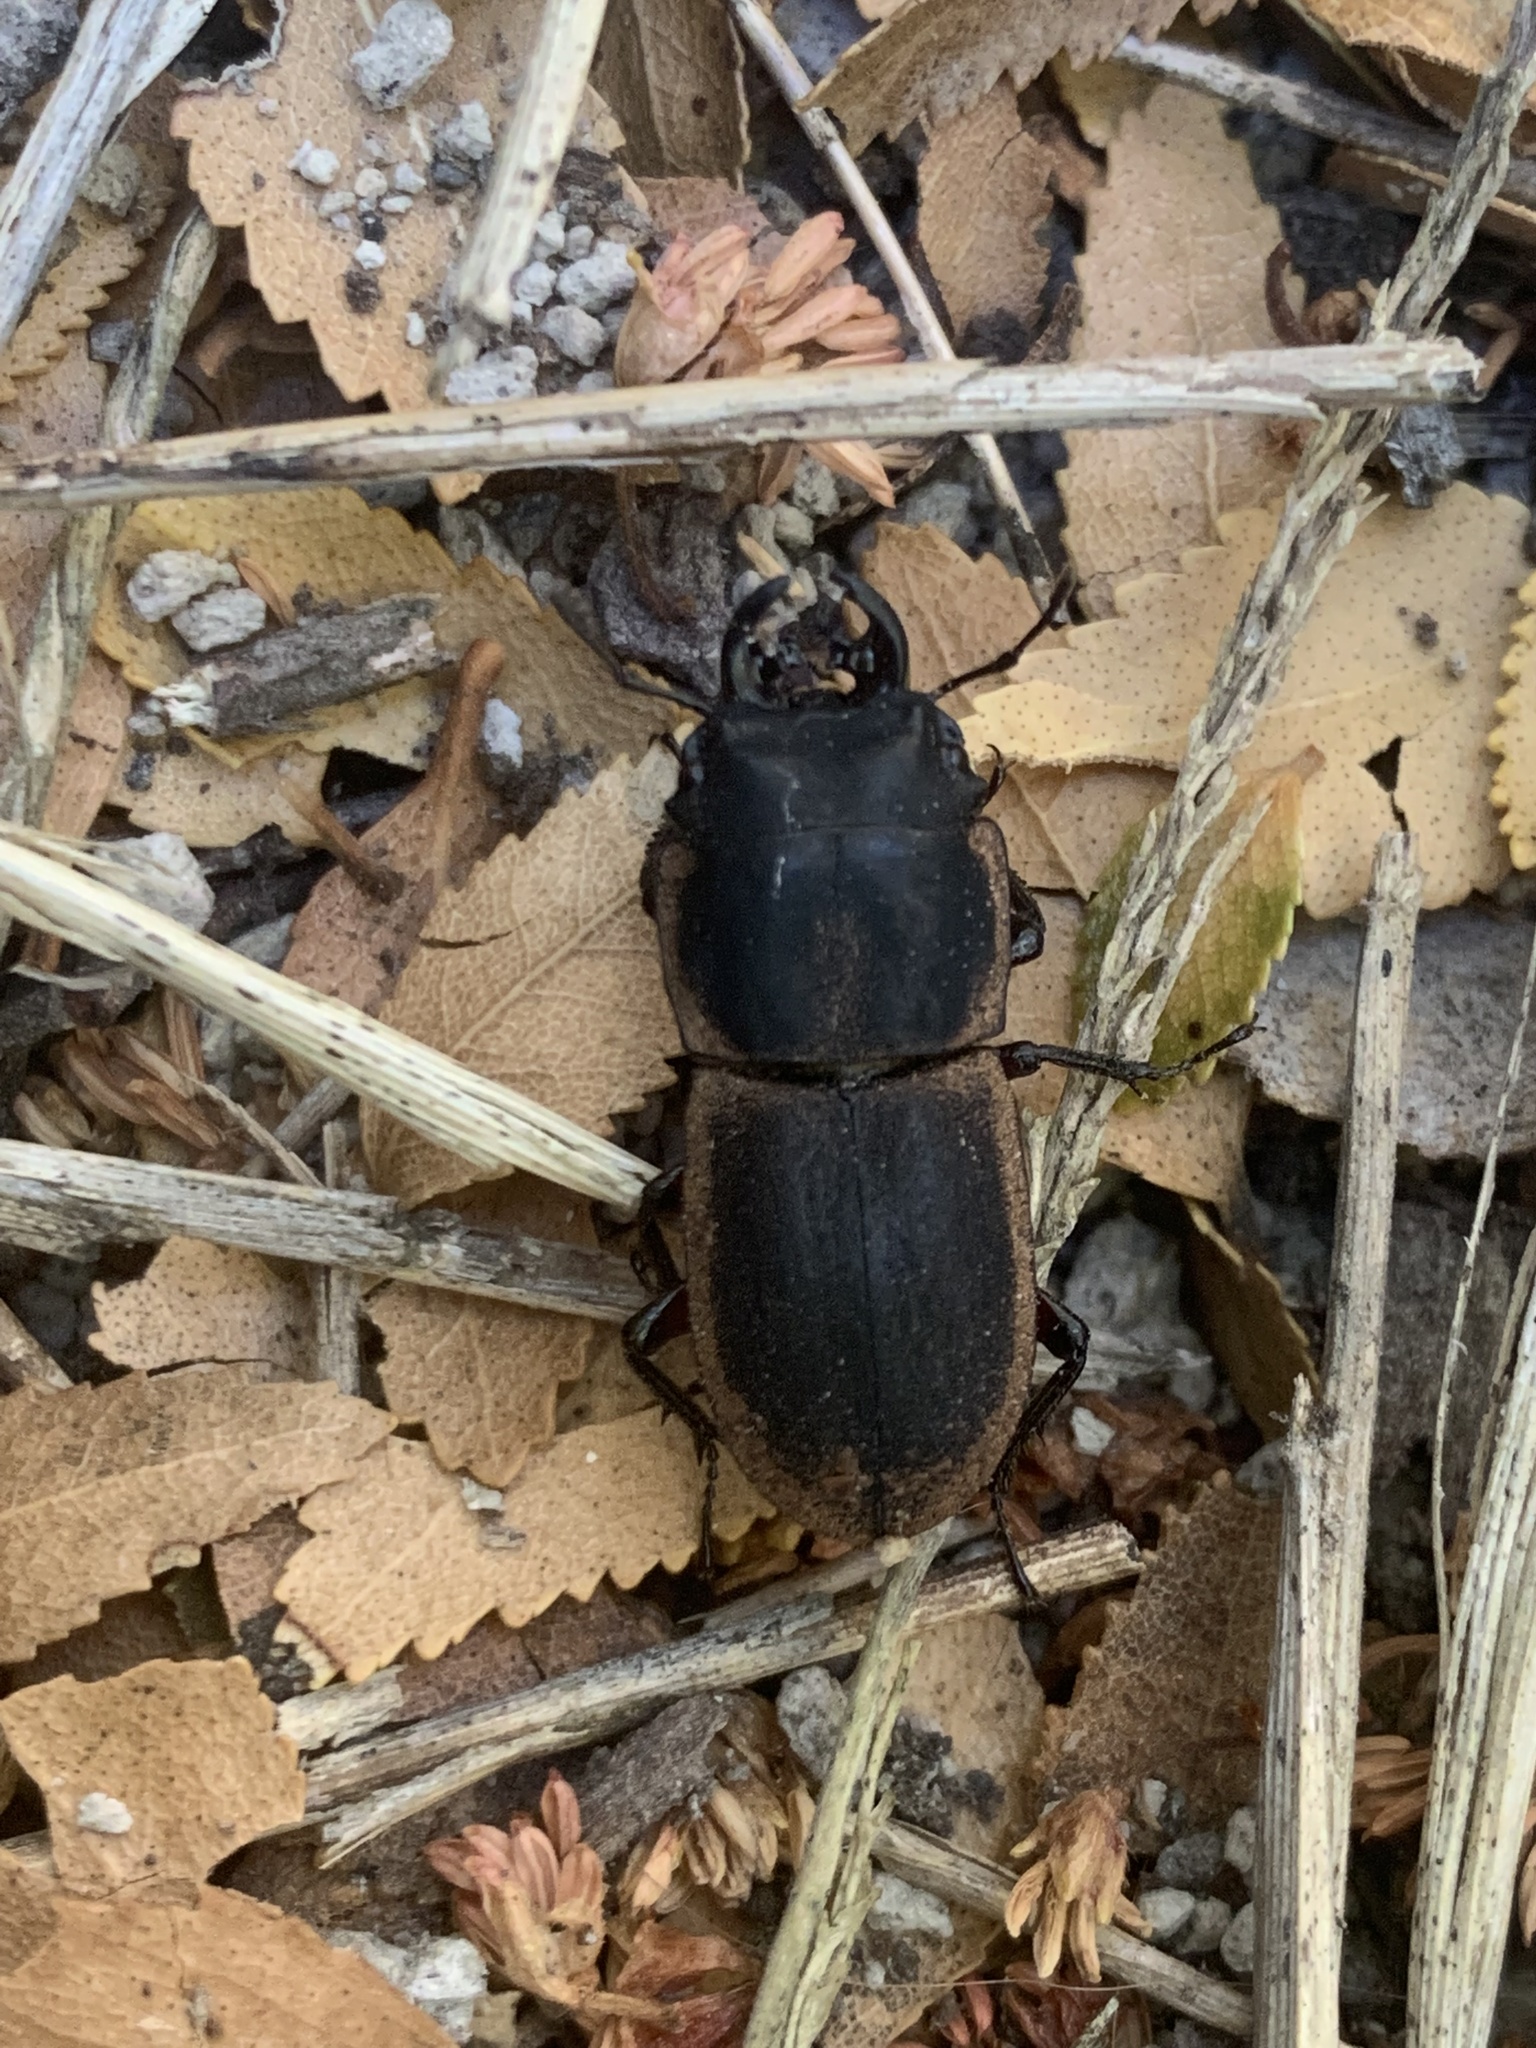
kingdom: Animalia
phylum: Arthropoda
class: Insecta
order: Coleoptera
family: Lucanidae
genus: Erichius
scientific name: Erichius femoralis
